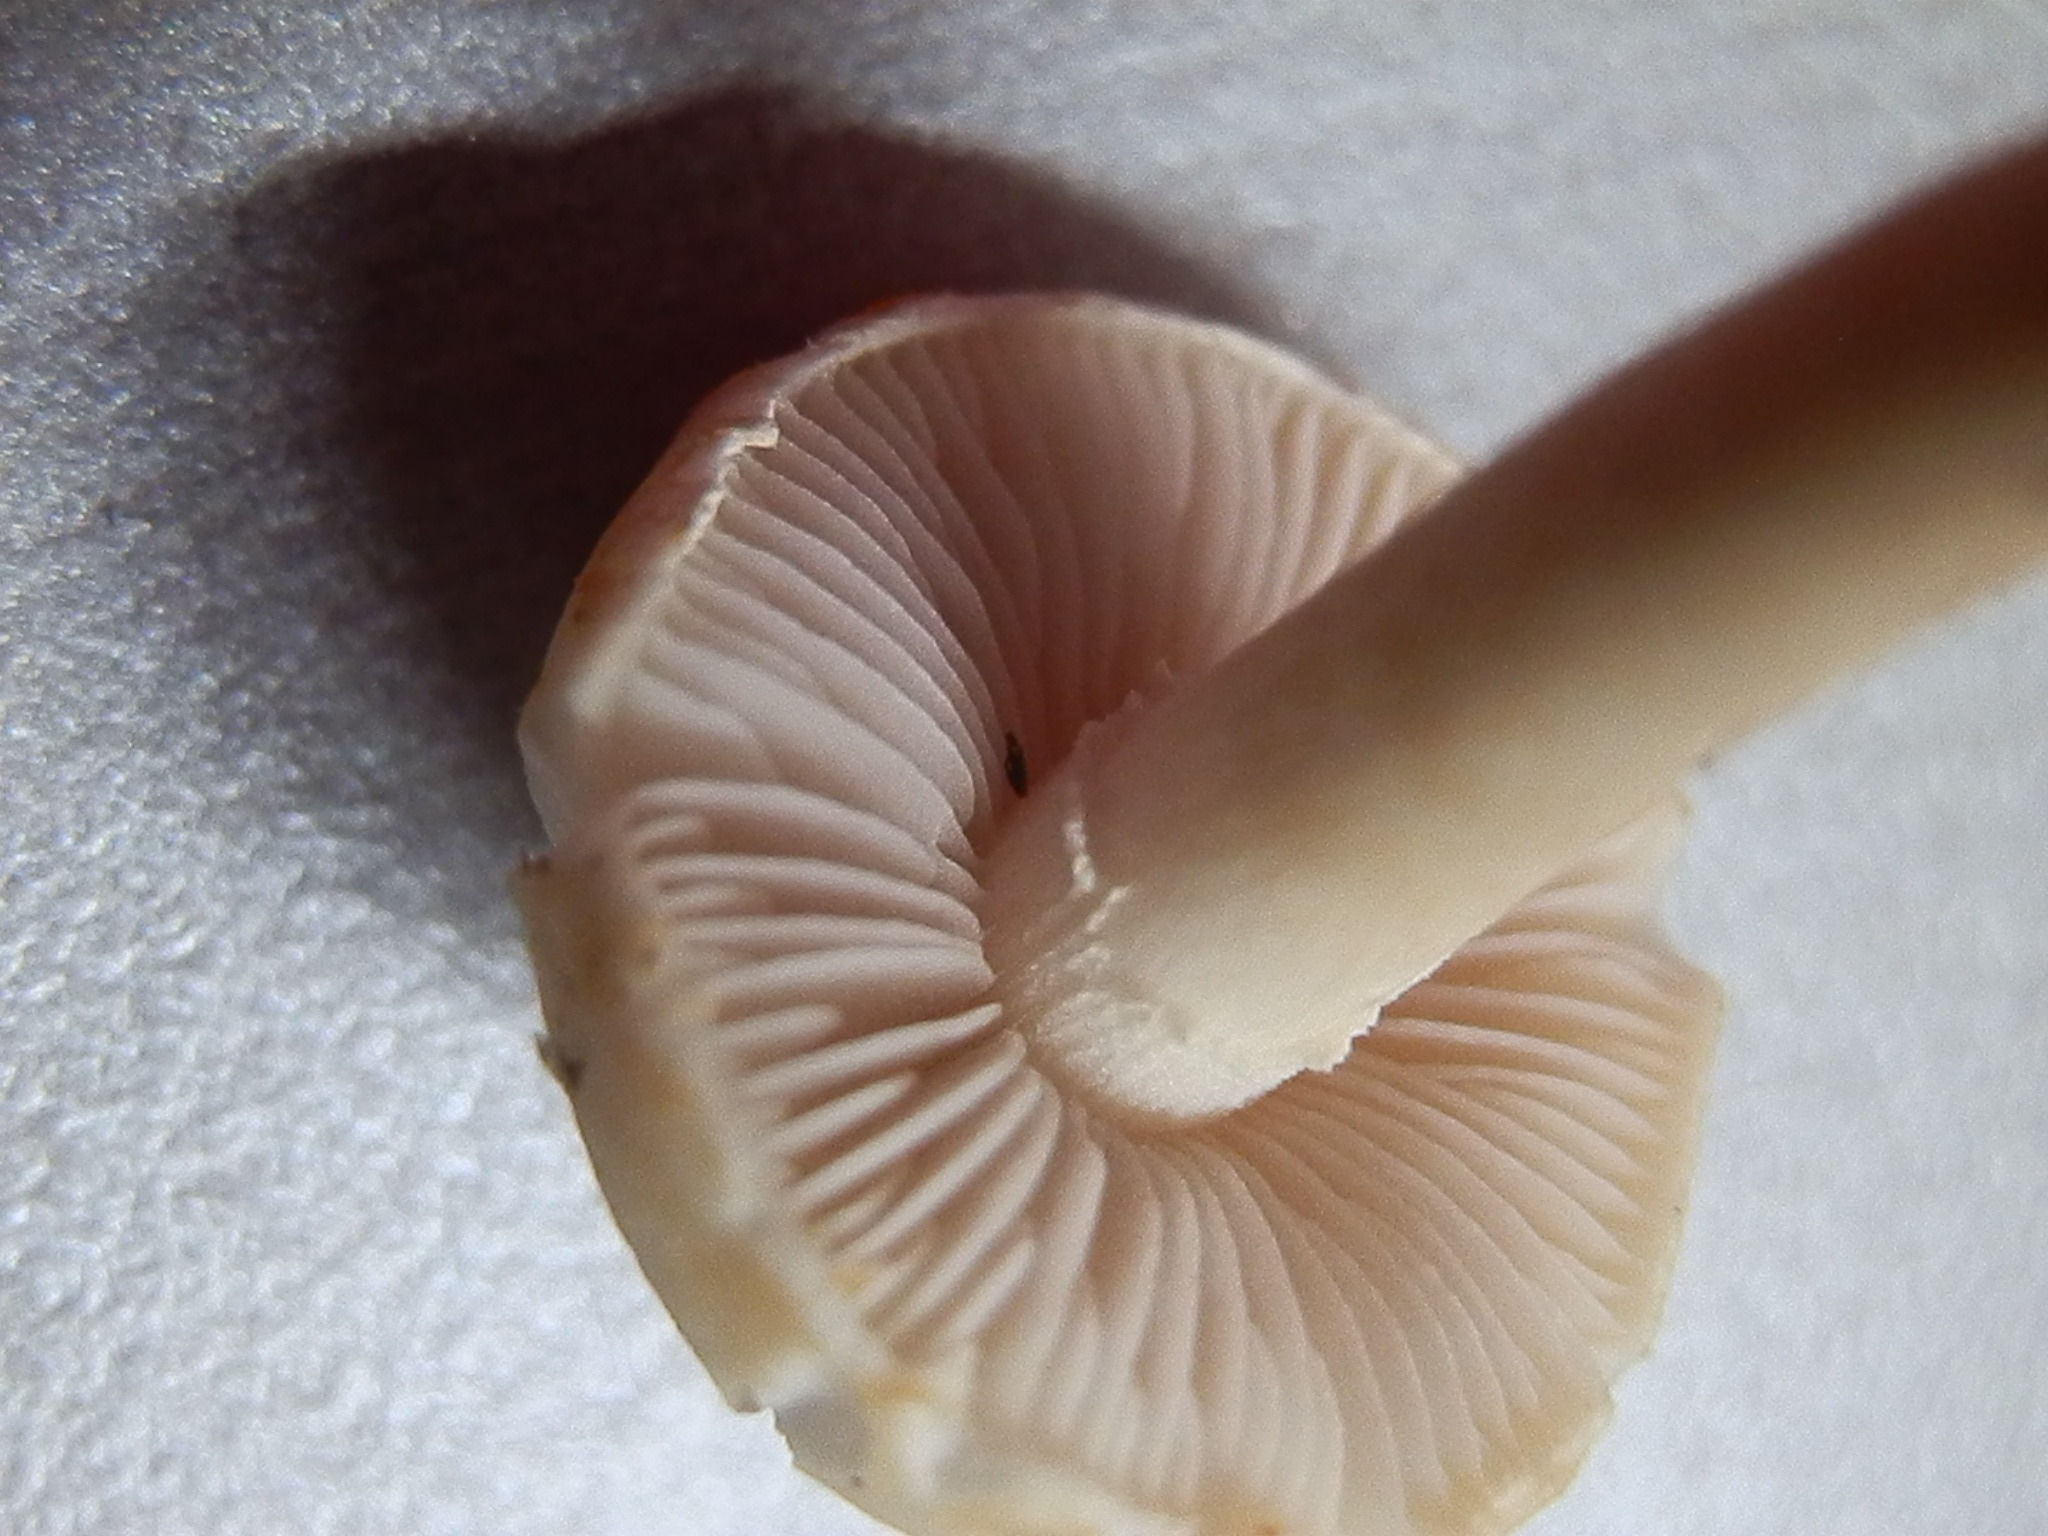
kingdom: Fungi
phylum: Basidiomycota
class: Agaricomycetes
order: Agaricales
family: Strophariaceae
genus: Agrocybe
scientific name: Agrocybe molesta
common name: Bearded fieldcap
